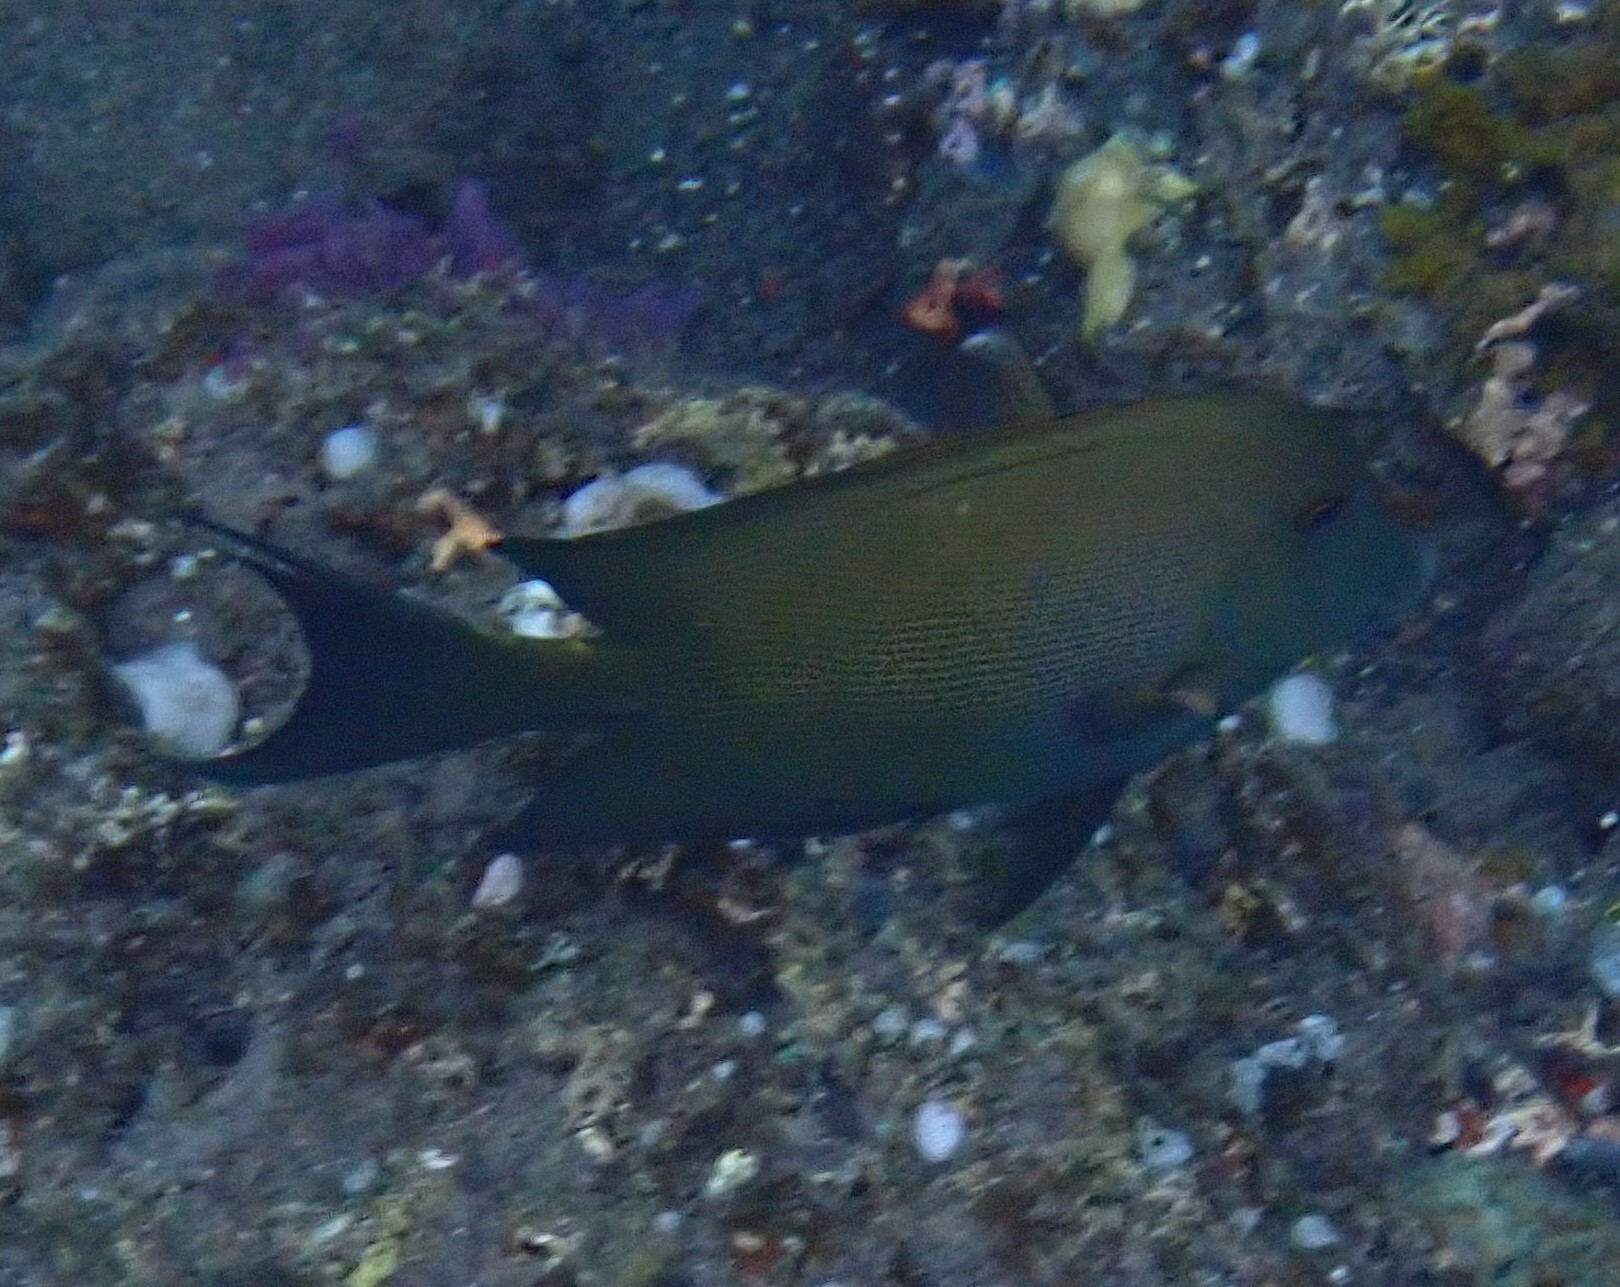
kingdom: Animalia
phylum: Chordata
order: Perciformes
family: Acanthuridae
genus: Ctenochaetus
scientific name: Ctenochaetus striatus
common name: Bristle-toothed surgeonfish
